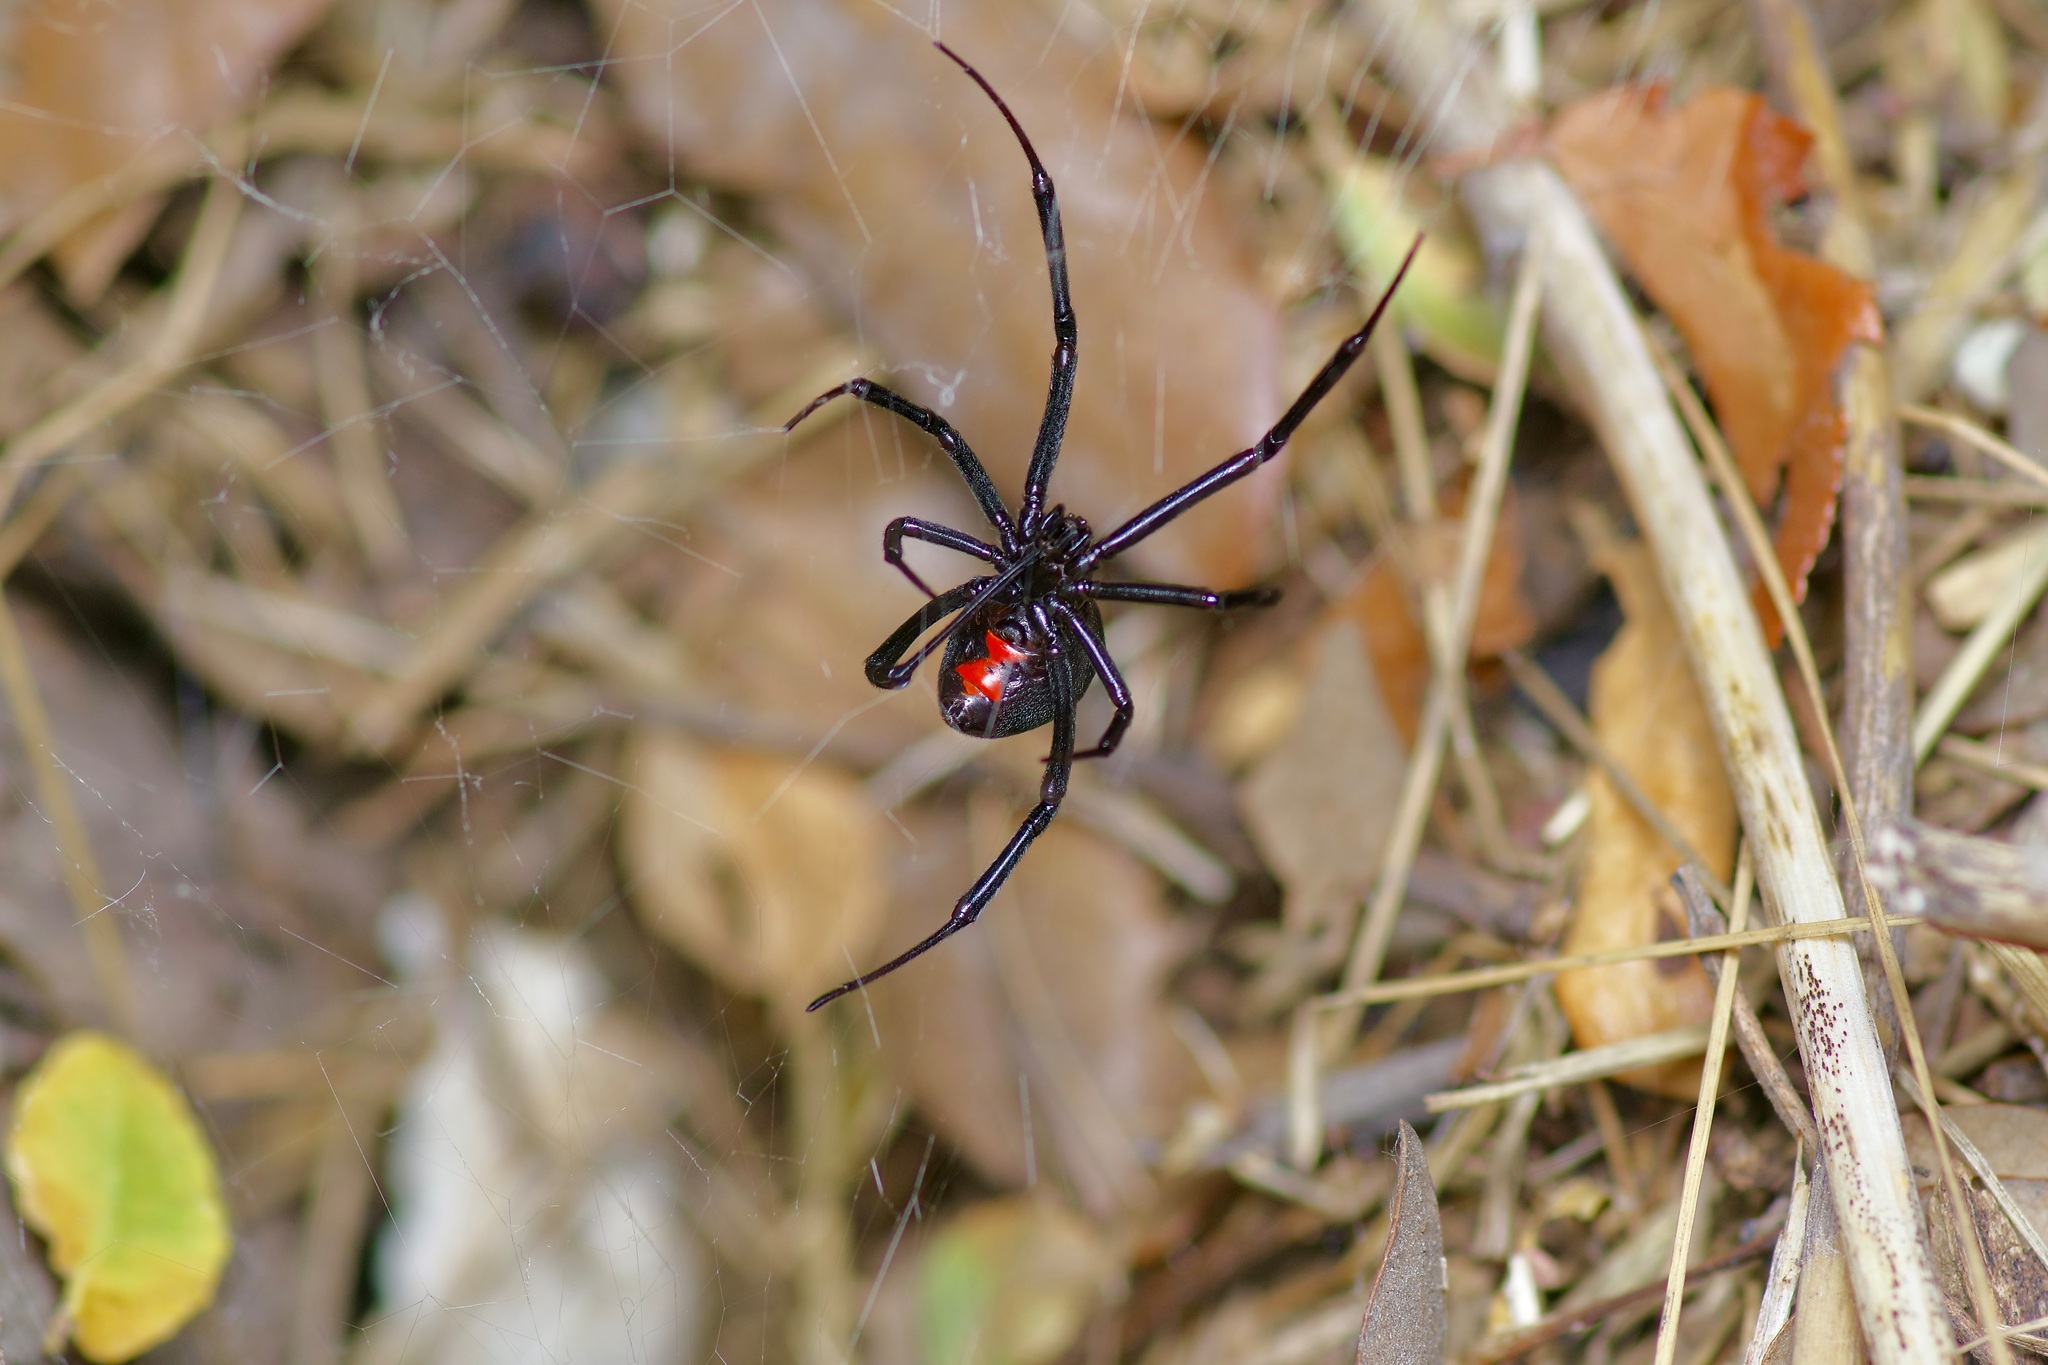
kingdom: Animalia
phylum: Arthropoda
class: Arachnida
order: Araneae
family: Theridiidae
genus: Latrodectus
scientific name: Latrodectus mactans
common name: Cobweb spiders
